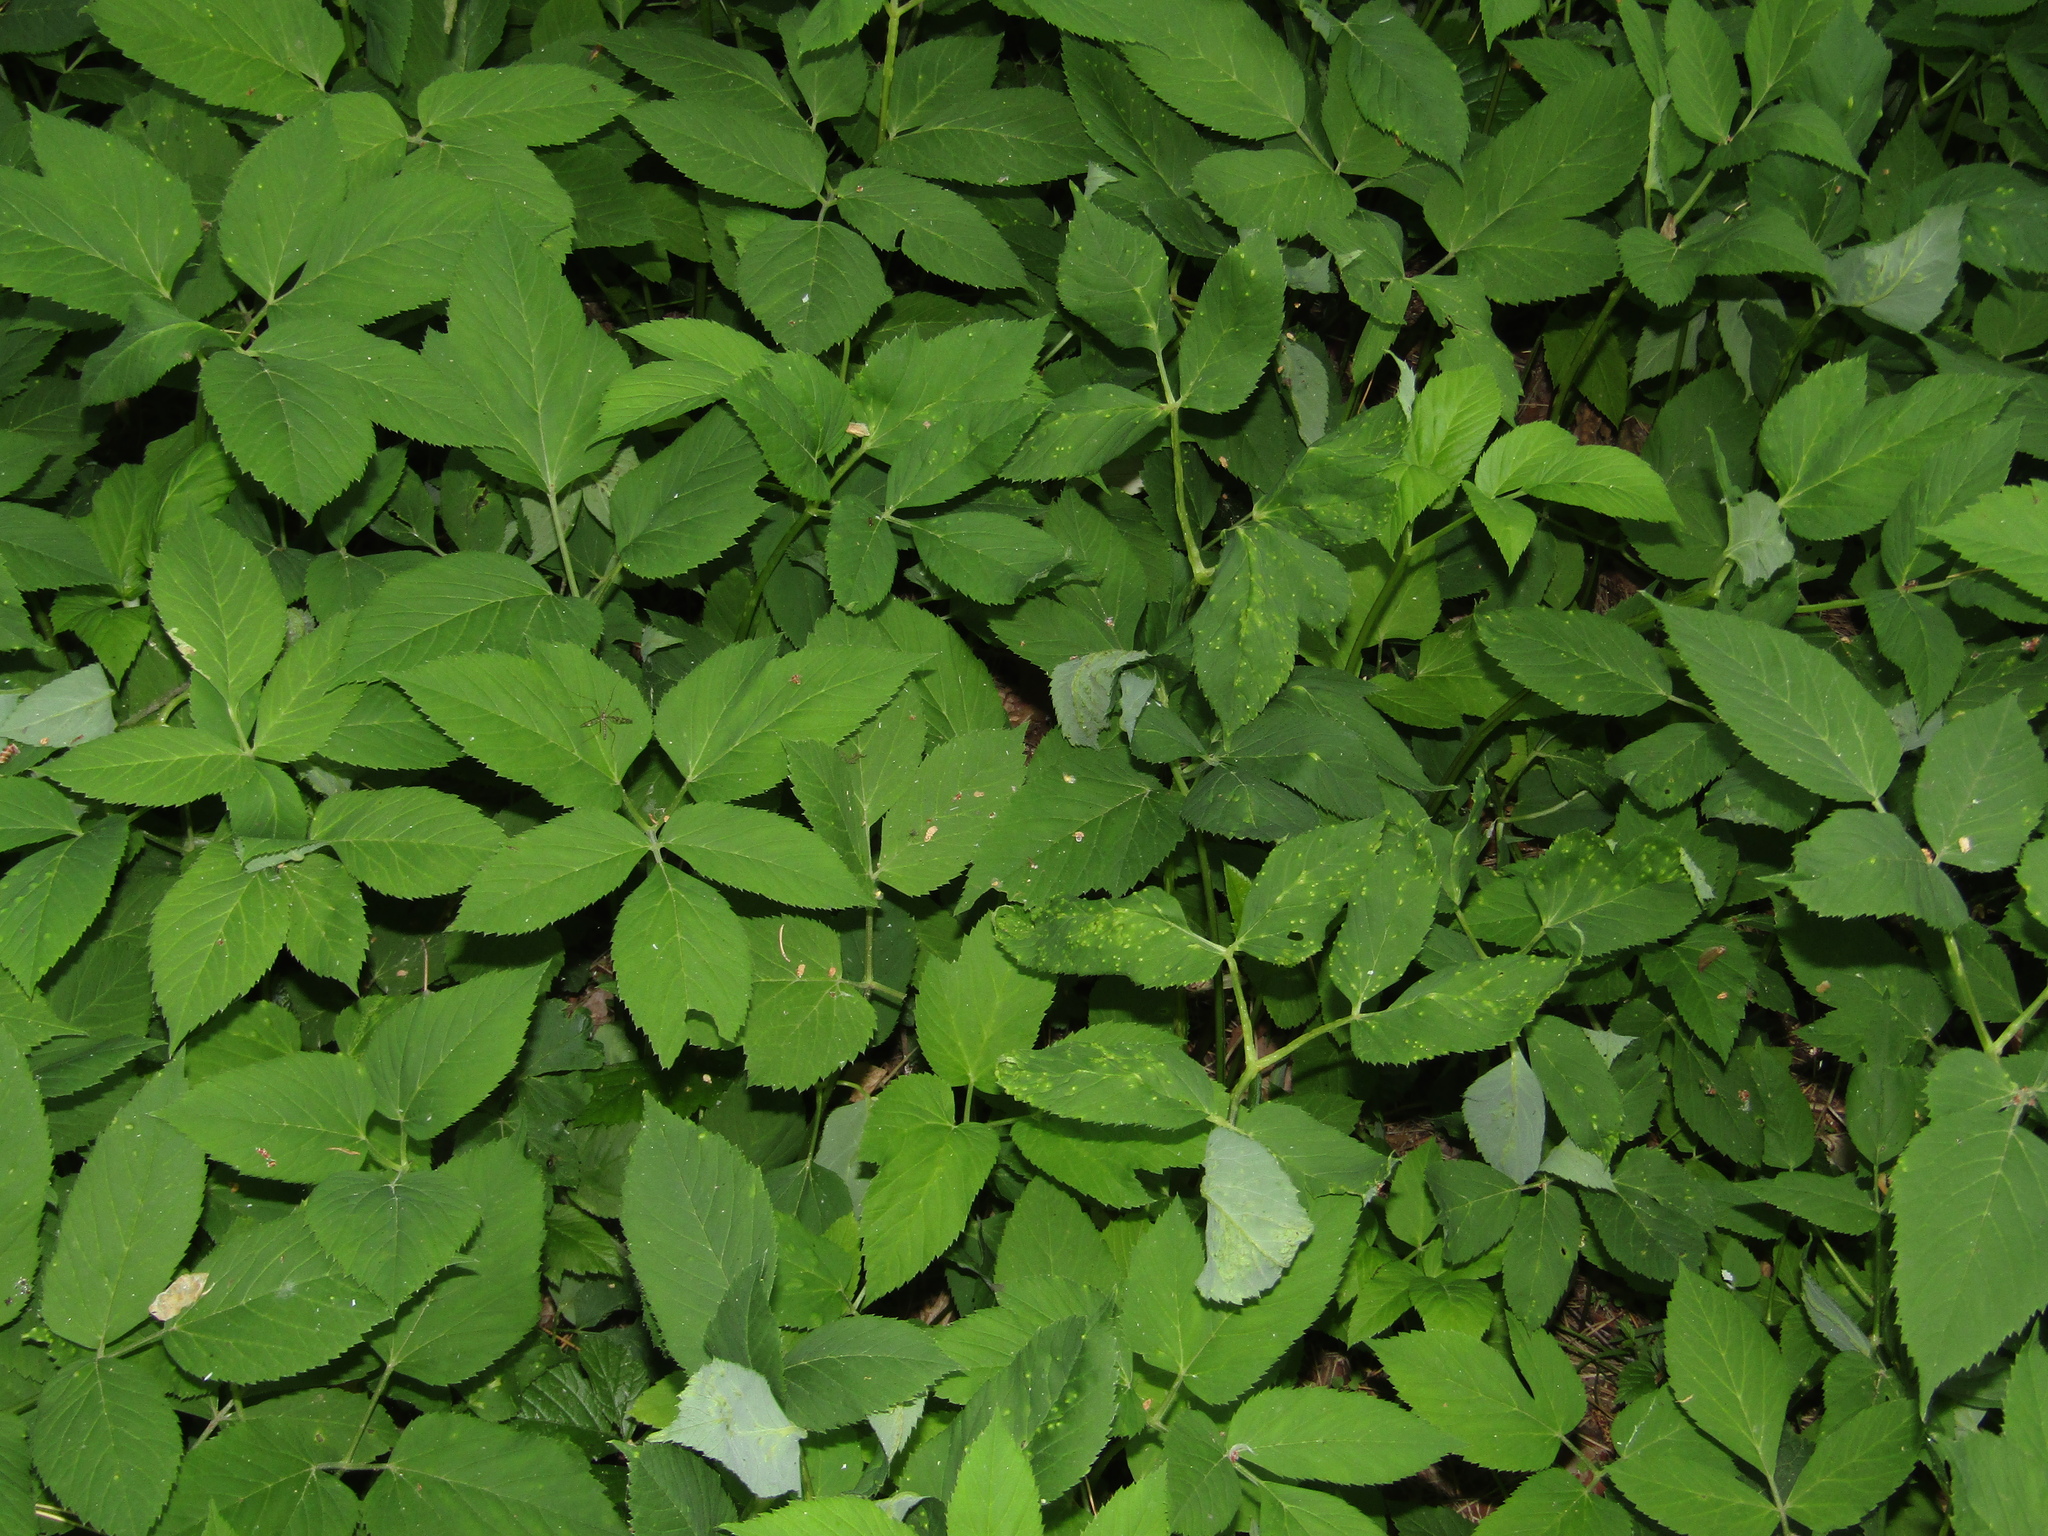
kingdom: Plantae
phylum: Tracheophyta
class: Magnoliopsida
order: Apiales
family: Apiaceae
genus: Aegopodium
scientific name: Aegopodium podagraria
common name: Ground-elder
